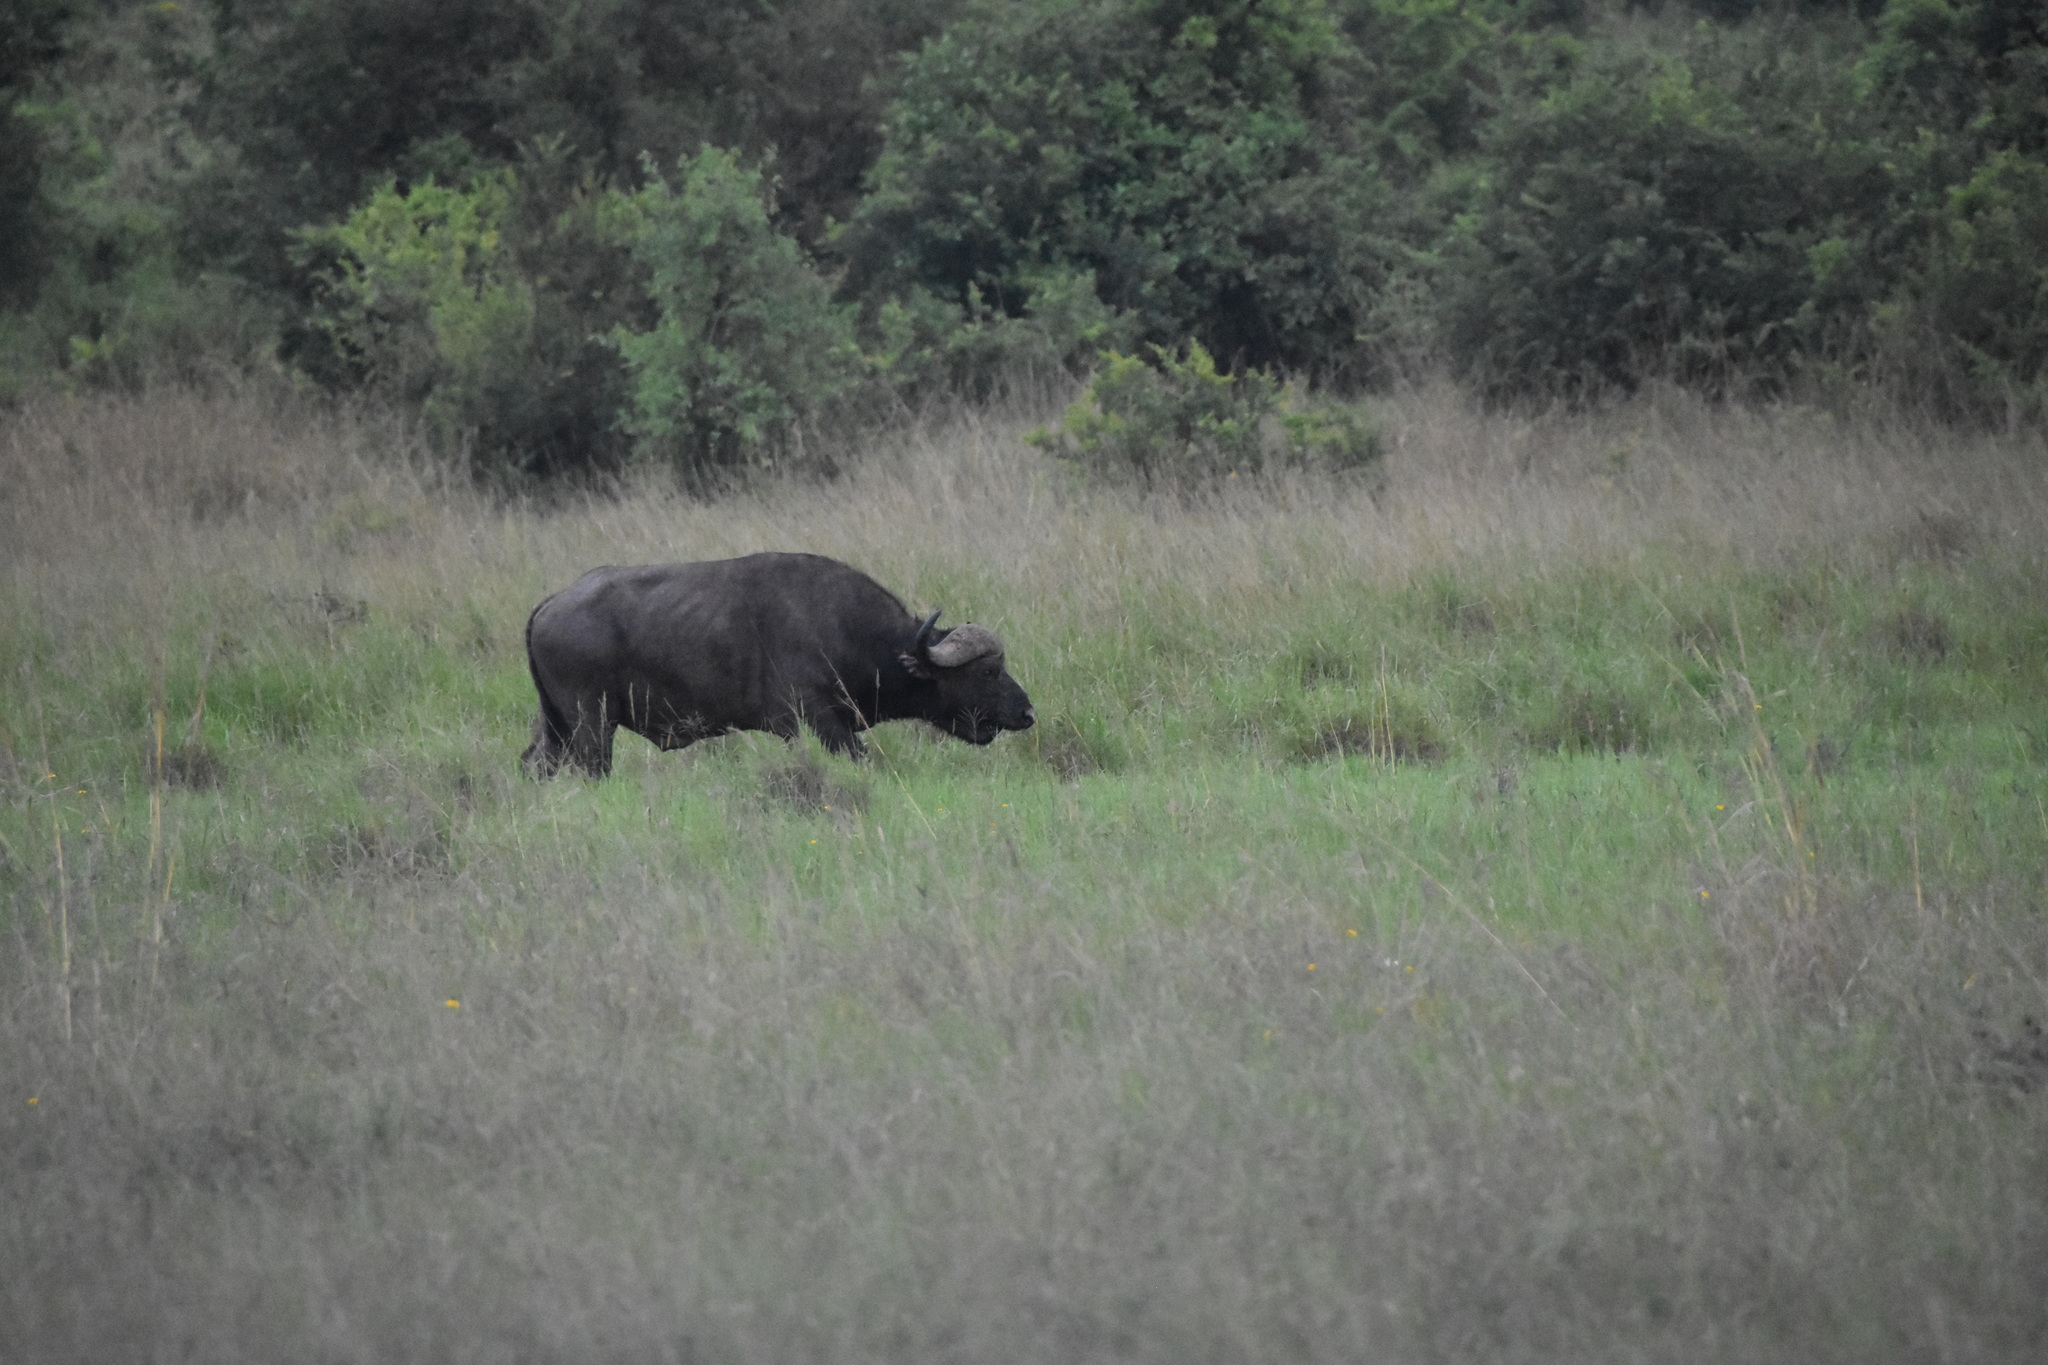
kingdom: Animalia
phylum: Chordata
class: Mammalia
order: Artiodactyla
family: Bovidae
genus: Syncerus
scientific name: Syncerus caffer
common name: African buffalo
